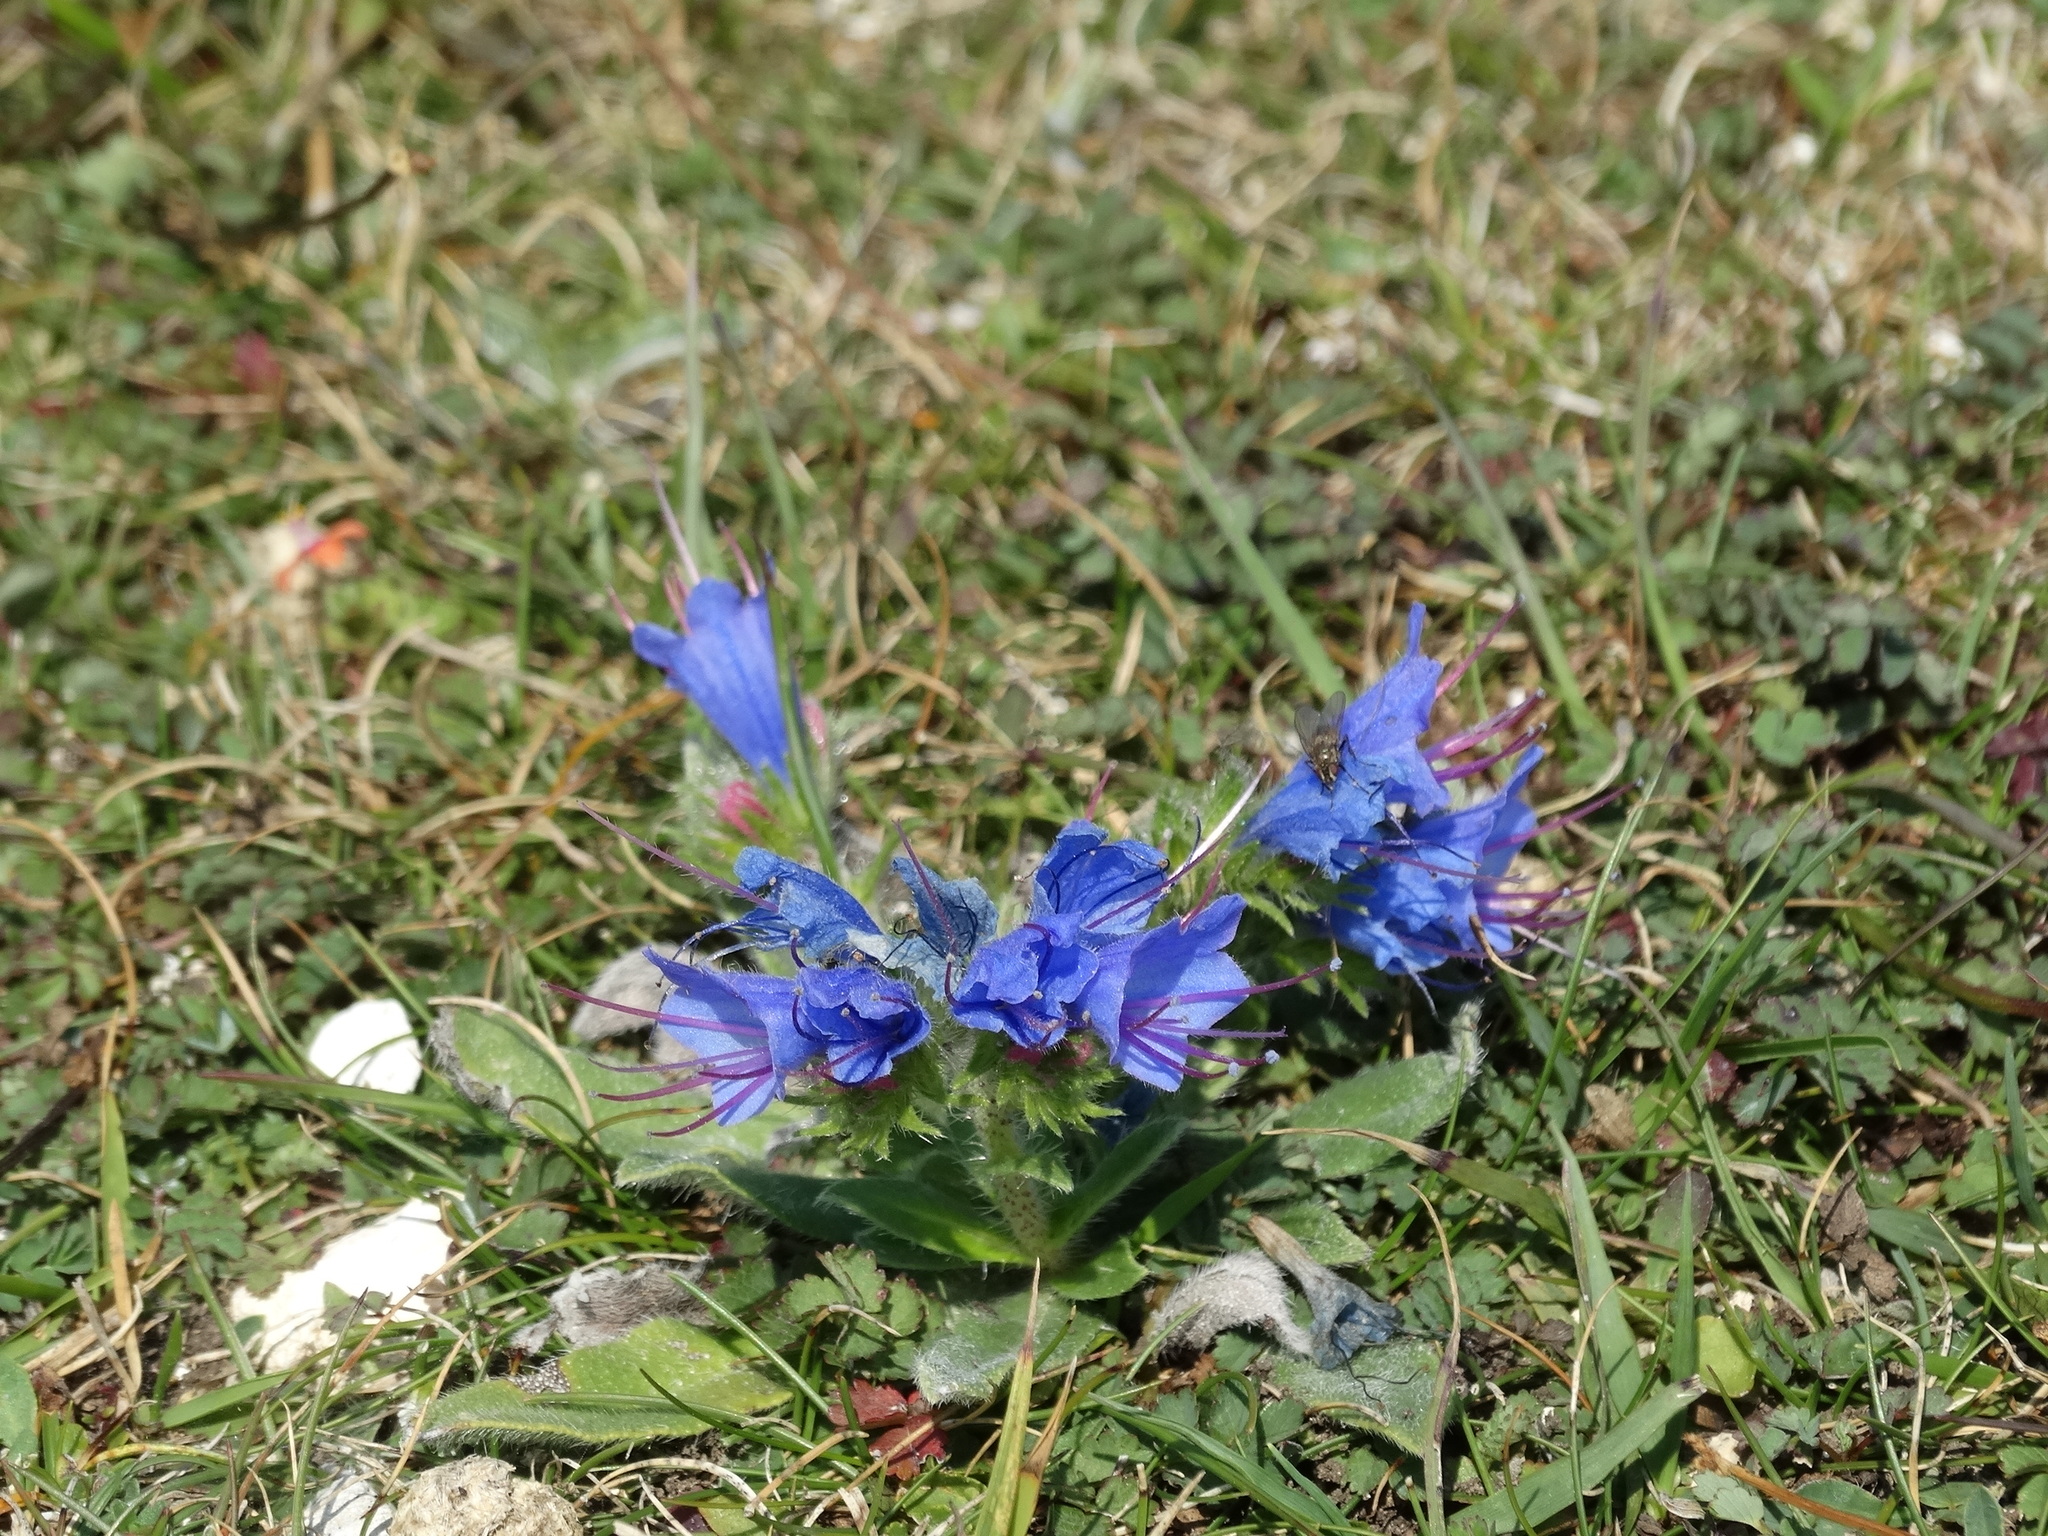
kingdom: Plantae
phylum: Tracheophyta
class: Magnoliopsida
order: Boraginales
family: Boraginaceae
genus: Echium
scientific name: Echium vulgare
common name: Common viper's bugloss
